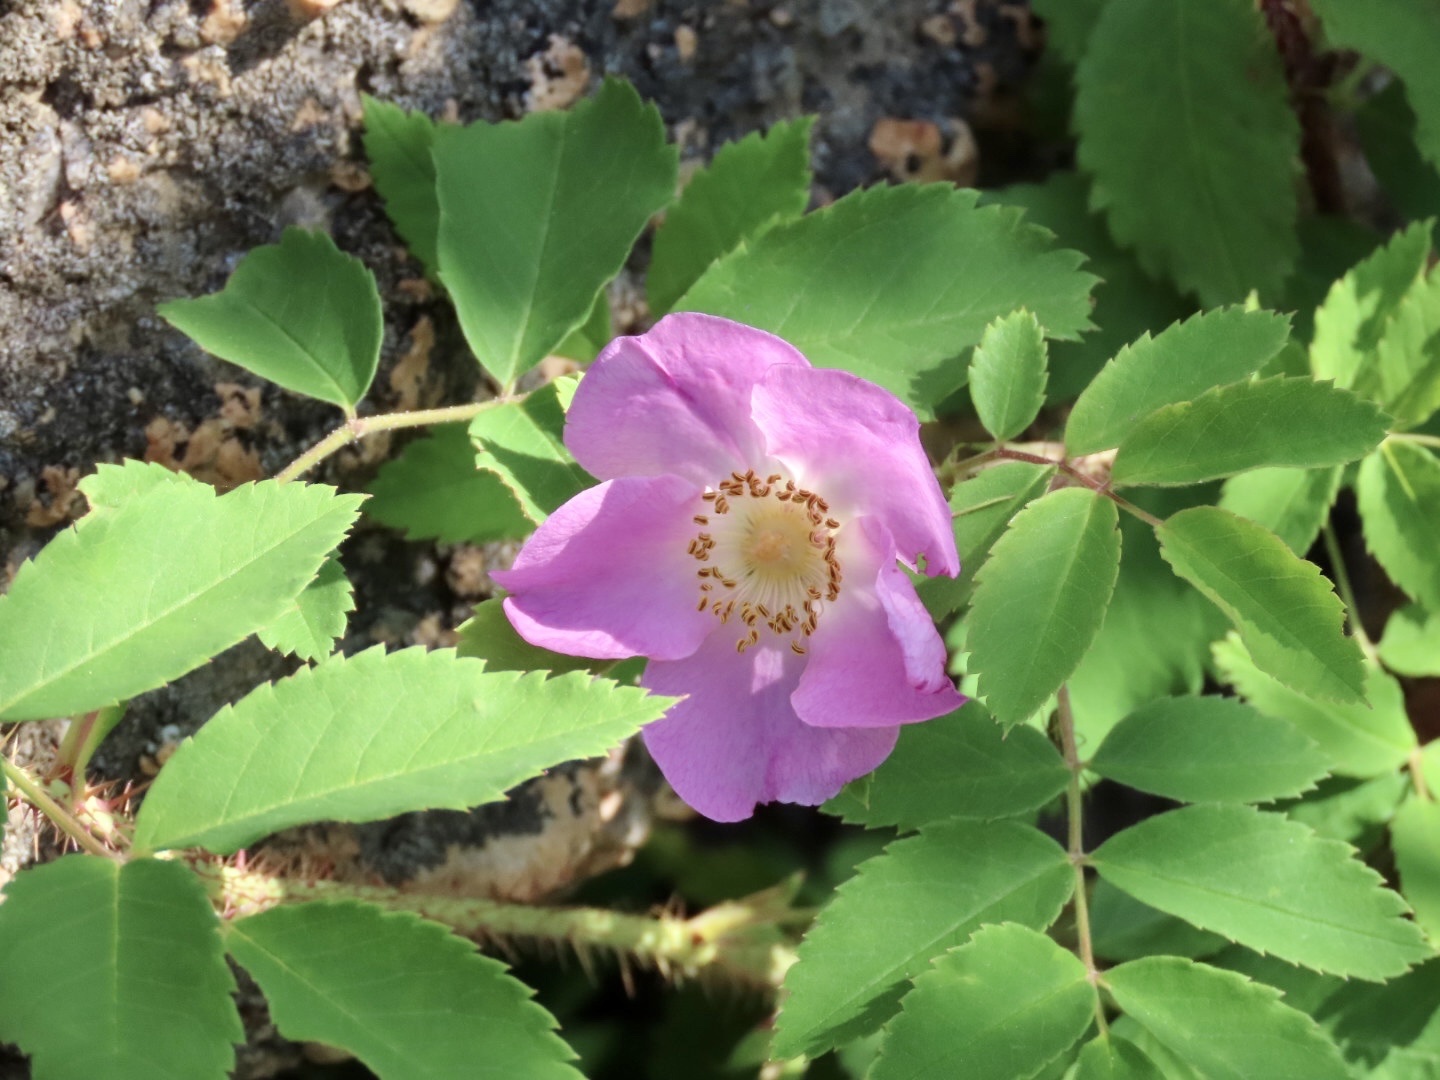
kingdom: Plantae
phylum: Tracheophyta
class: Magnoliopsida
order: Rosales
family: Rosaceae
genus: Rosa
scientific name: Rosa acicularis
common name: Prickly rose
